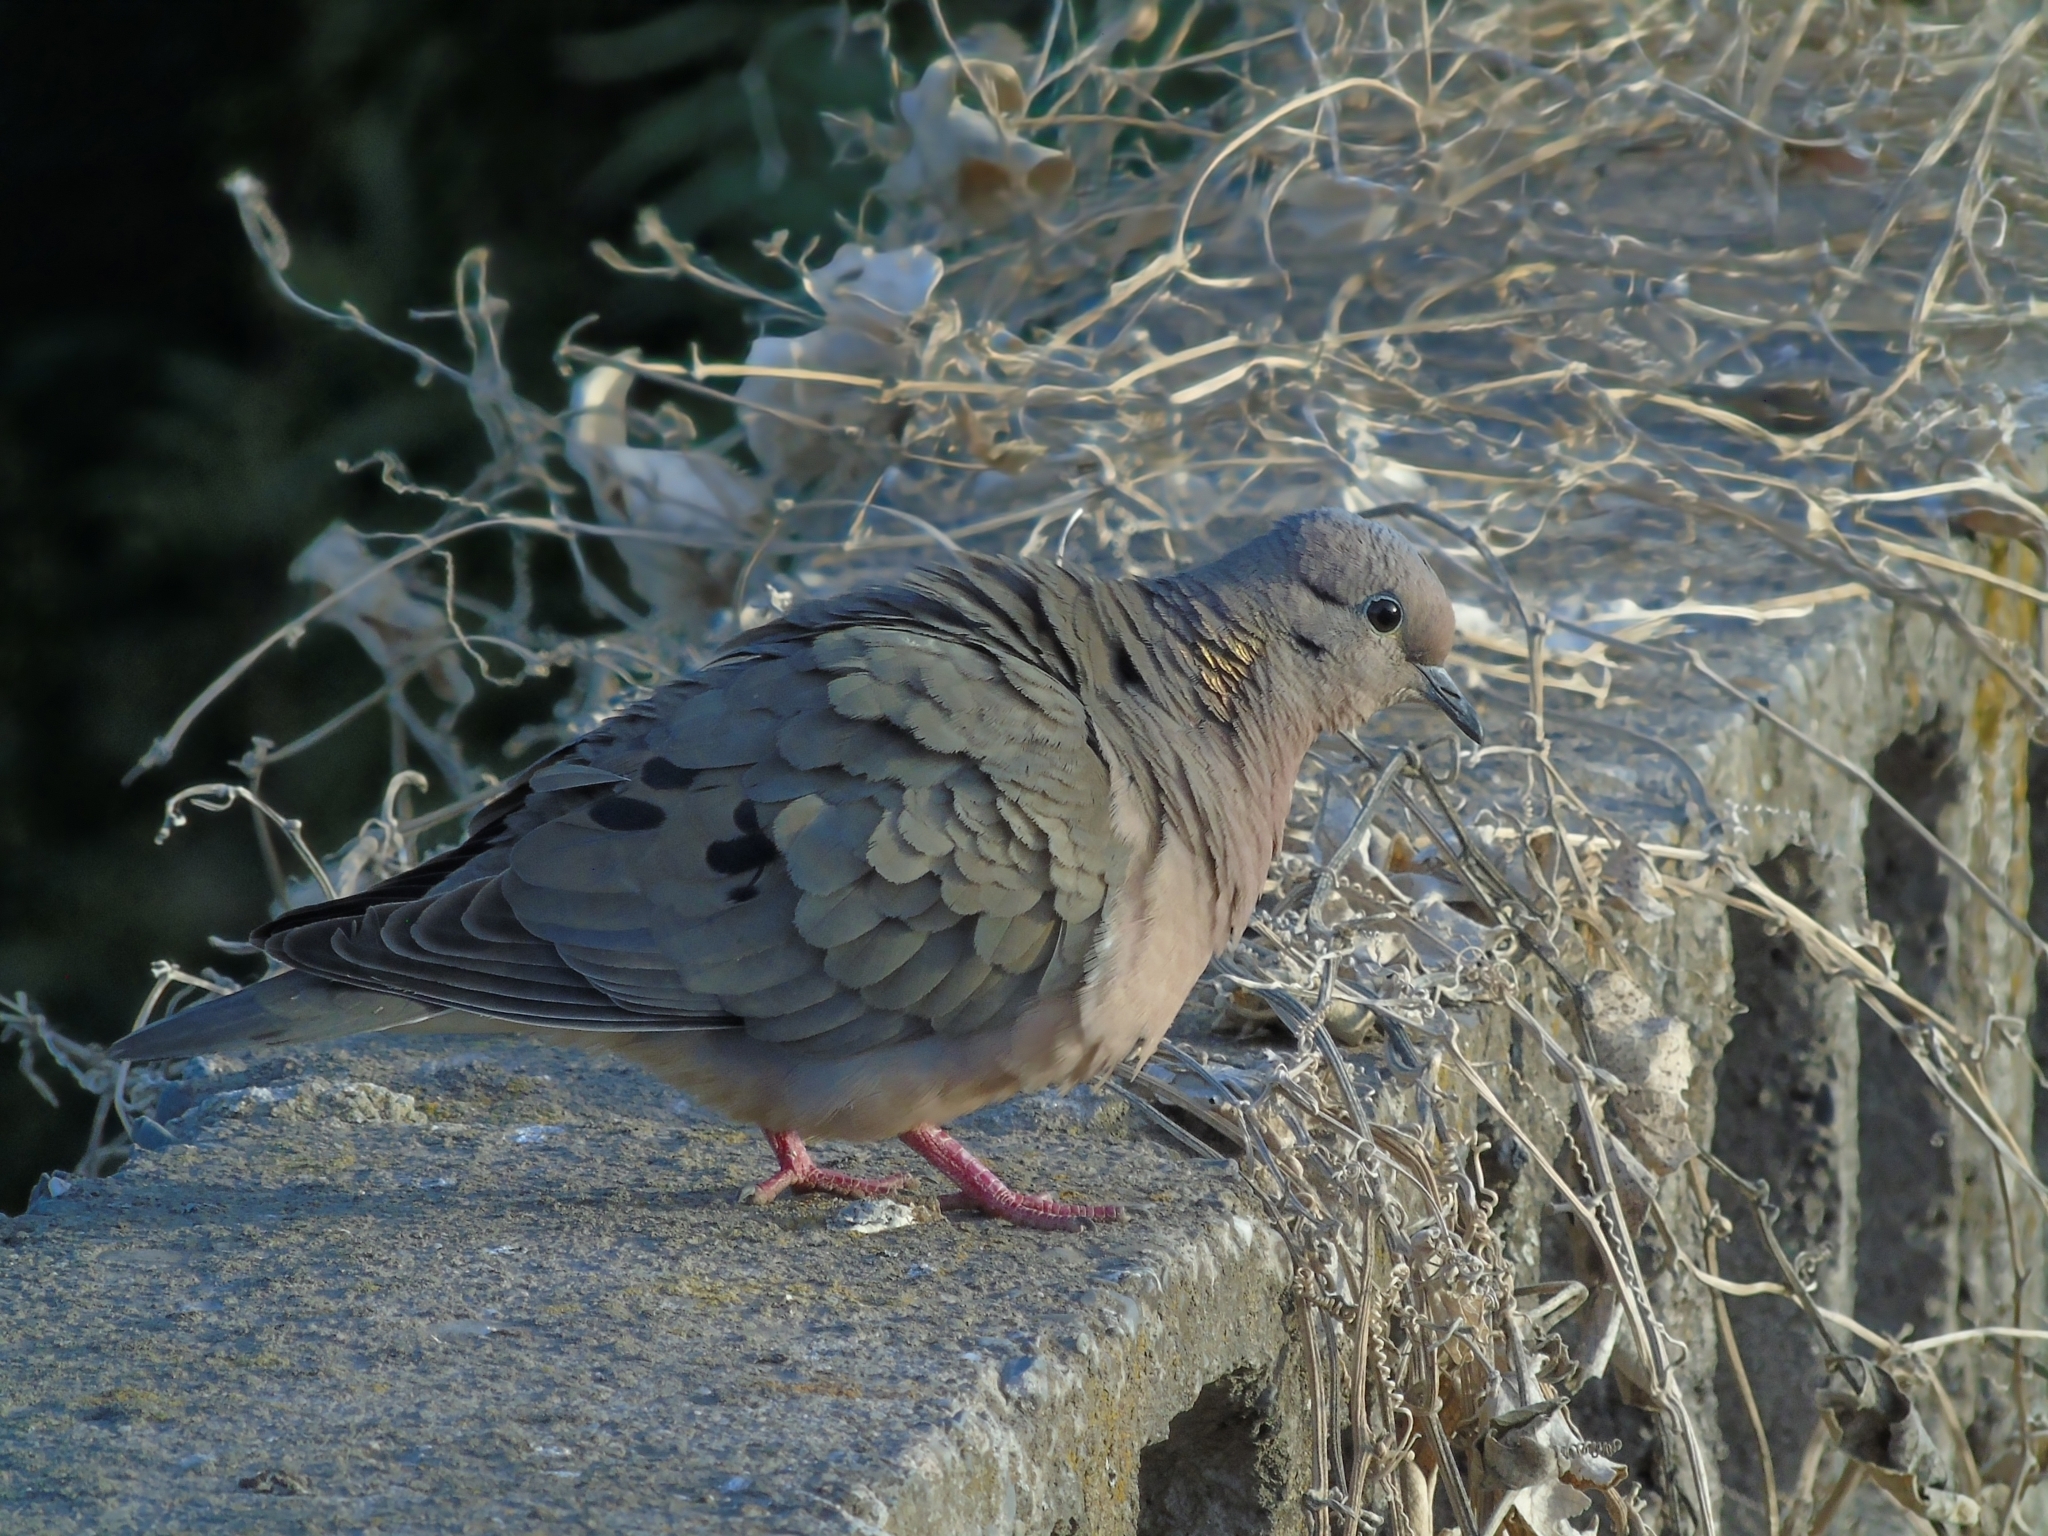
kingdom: Animalia
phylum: Chordata
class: Aves
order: Columbiformes
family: Columbidae
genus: Zenaida
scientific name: Zenaida auriculata
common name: Eared dove
